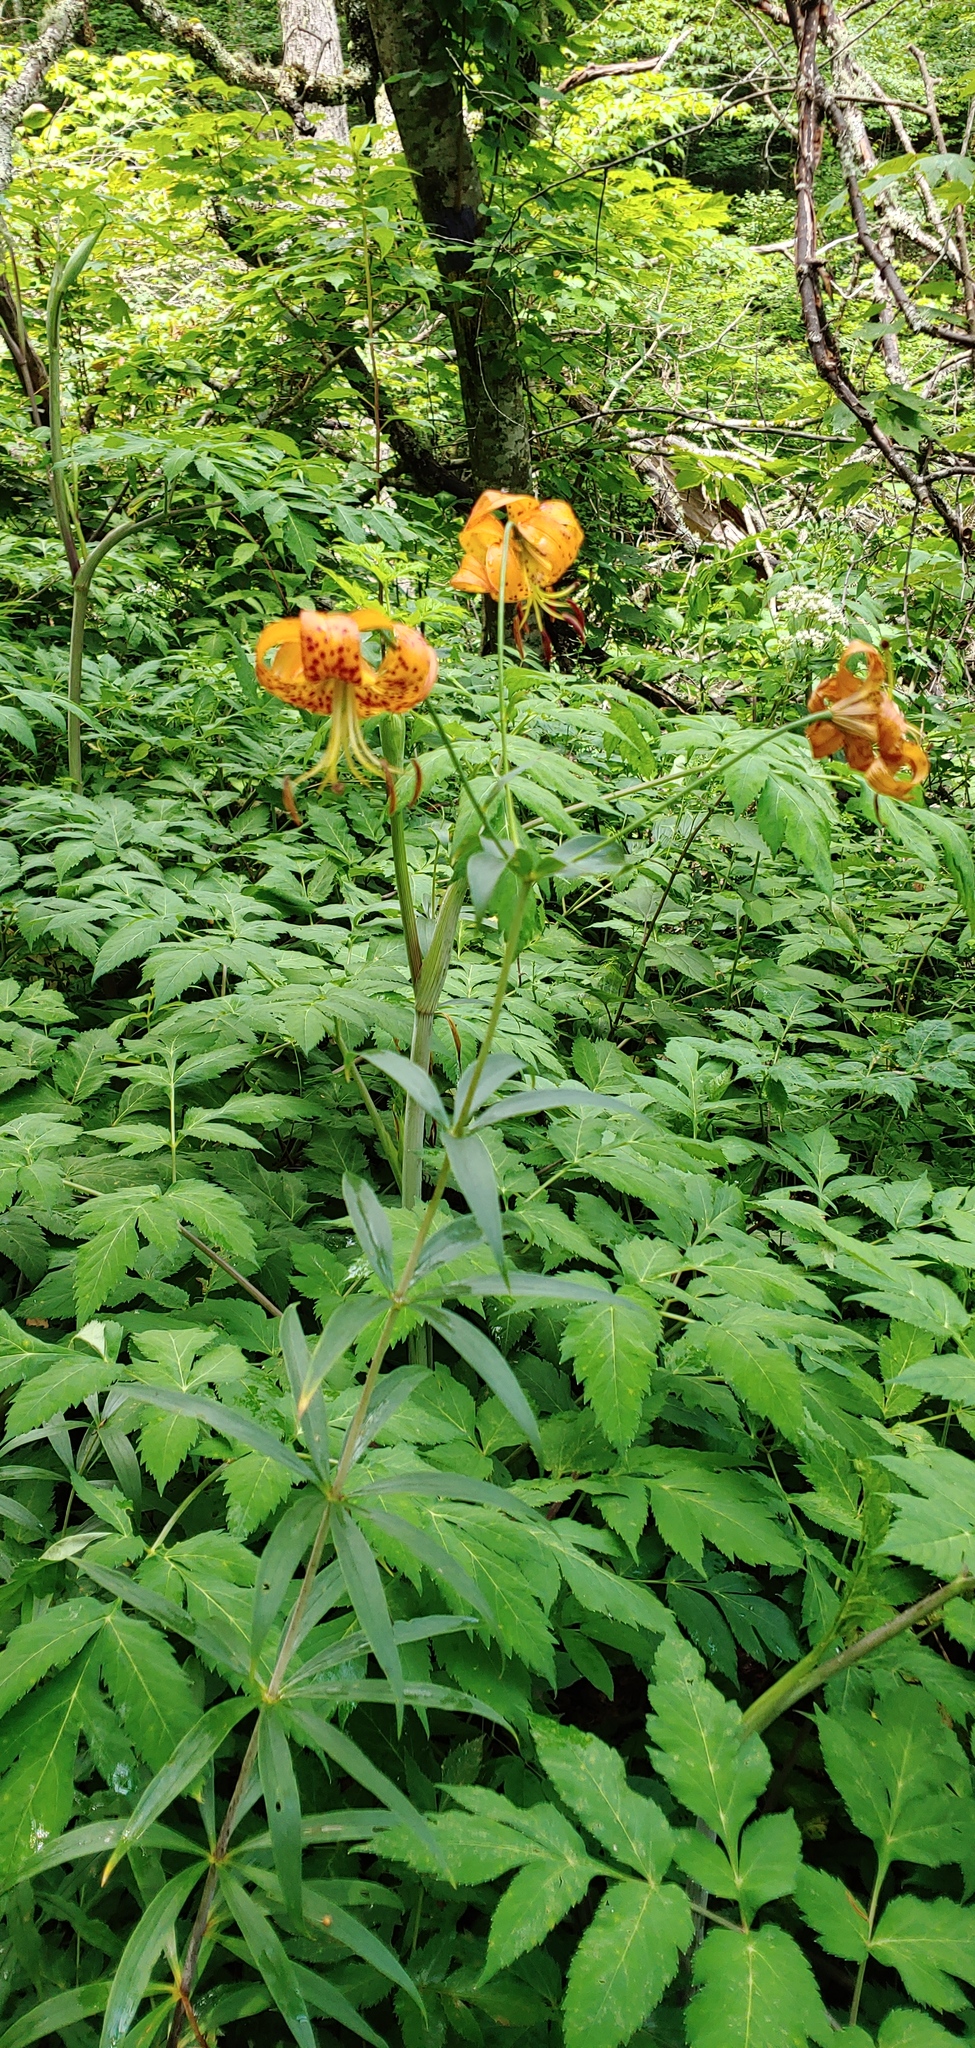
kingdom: Plantae
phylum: Tracheophyta
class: Liliopsida
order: Liliales
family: Liliaceae
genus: Lilium
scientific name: Lilium superbum
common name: American turk's-cap lily
